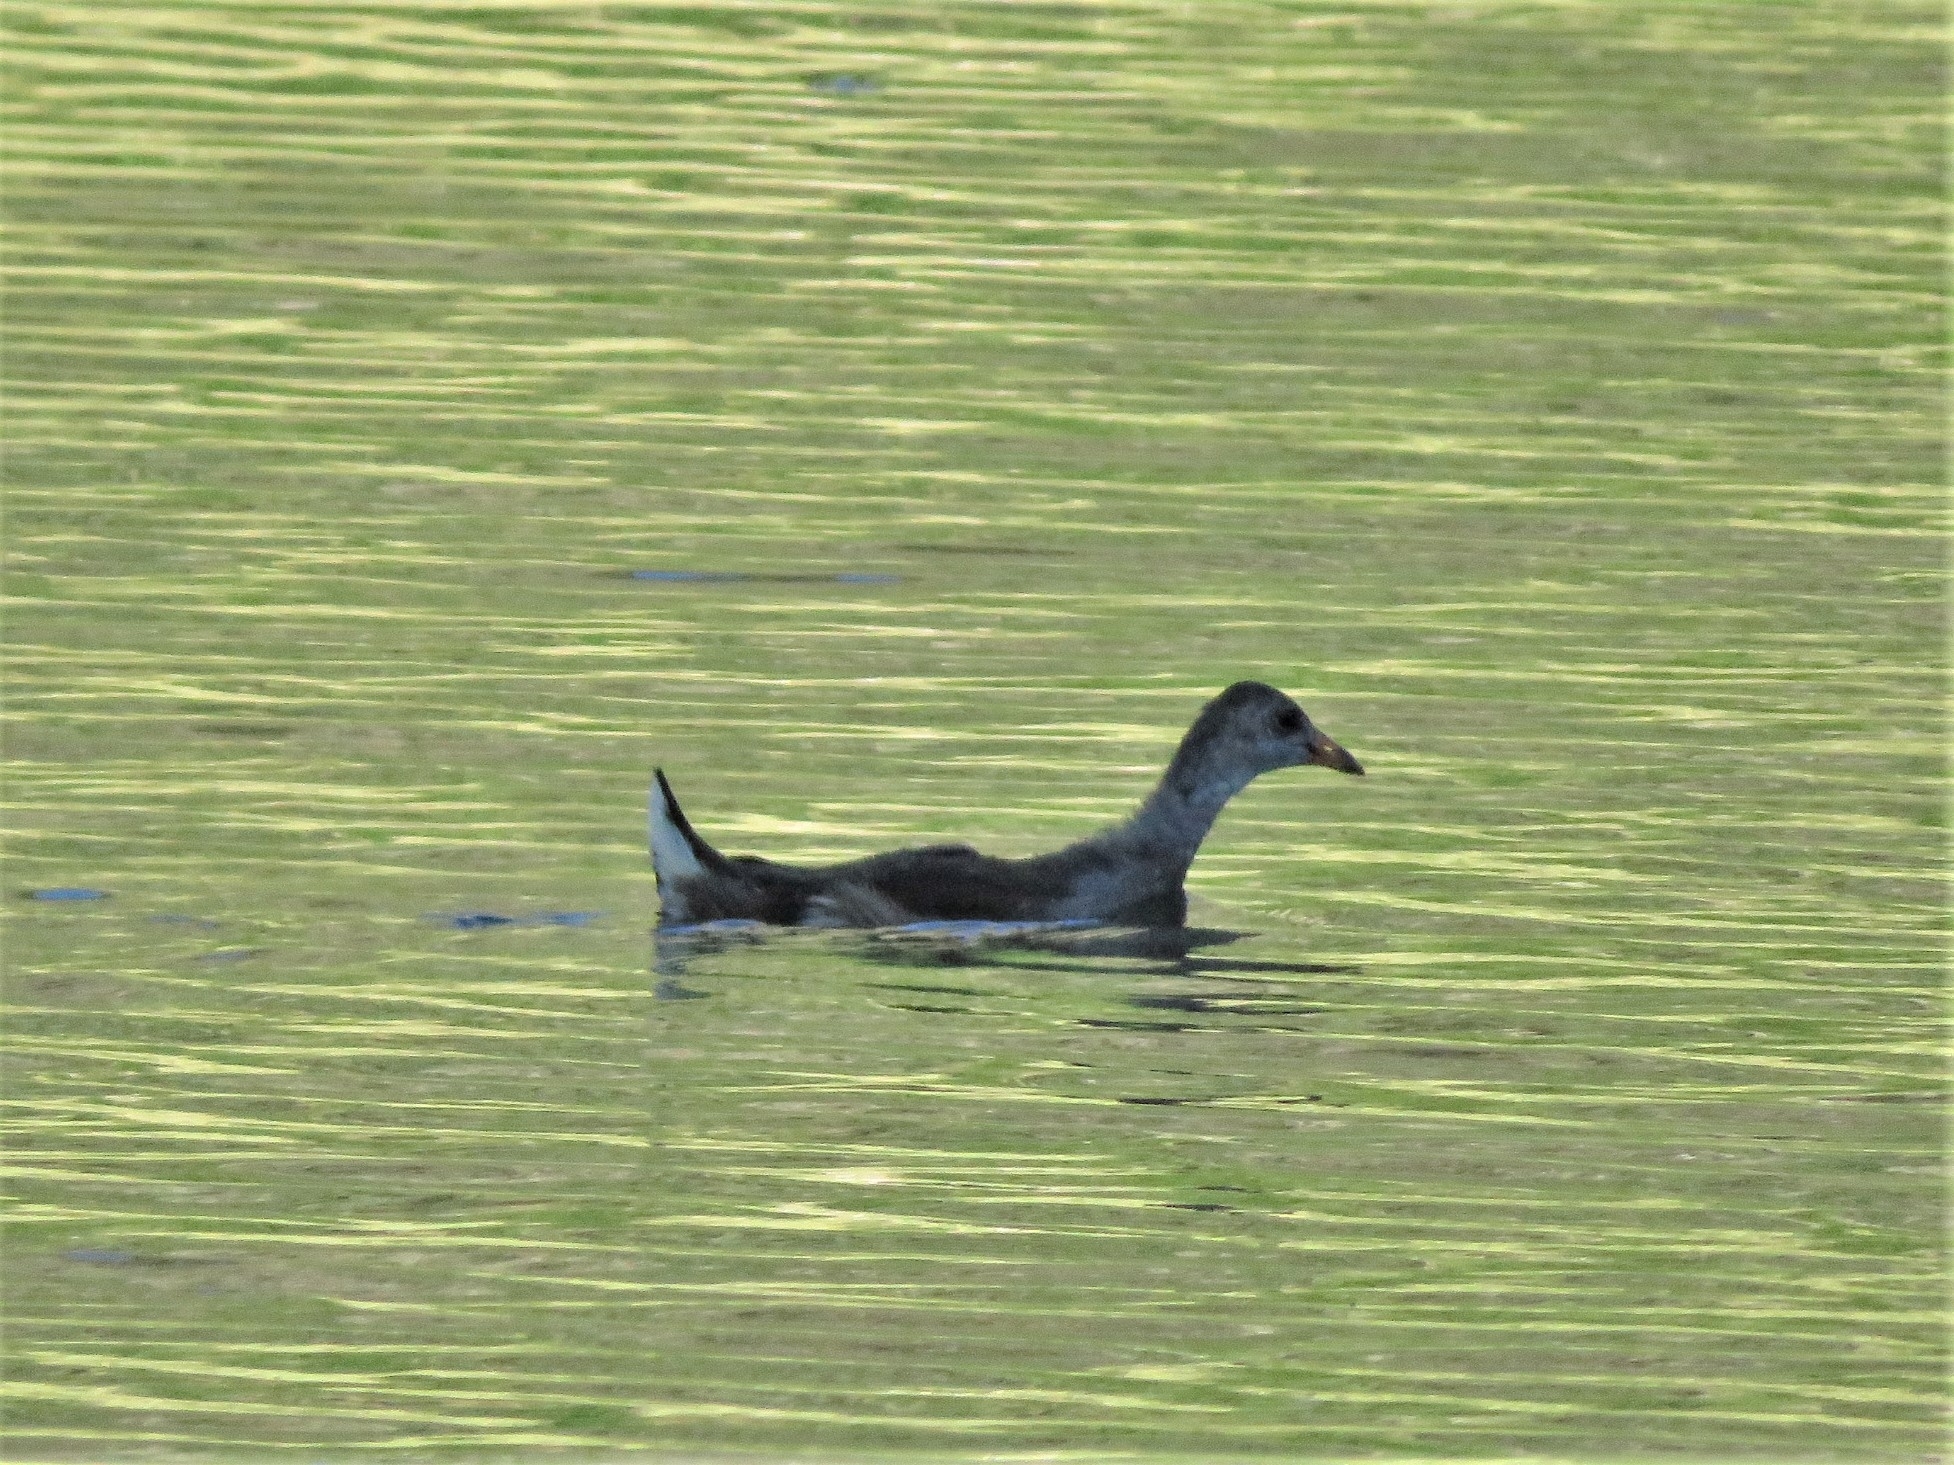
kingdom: Animalia
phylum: Chordata
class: Aves
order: Gruiformes
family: Rallidae
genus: Gallinula
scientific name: Gallinula chloropus
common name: Common moorhen
